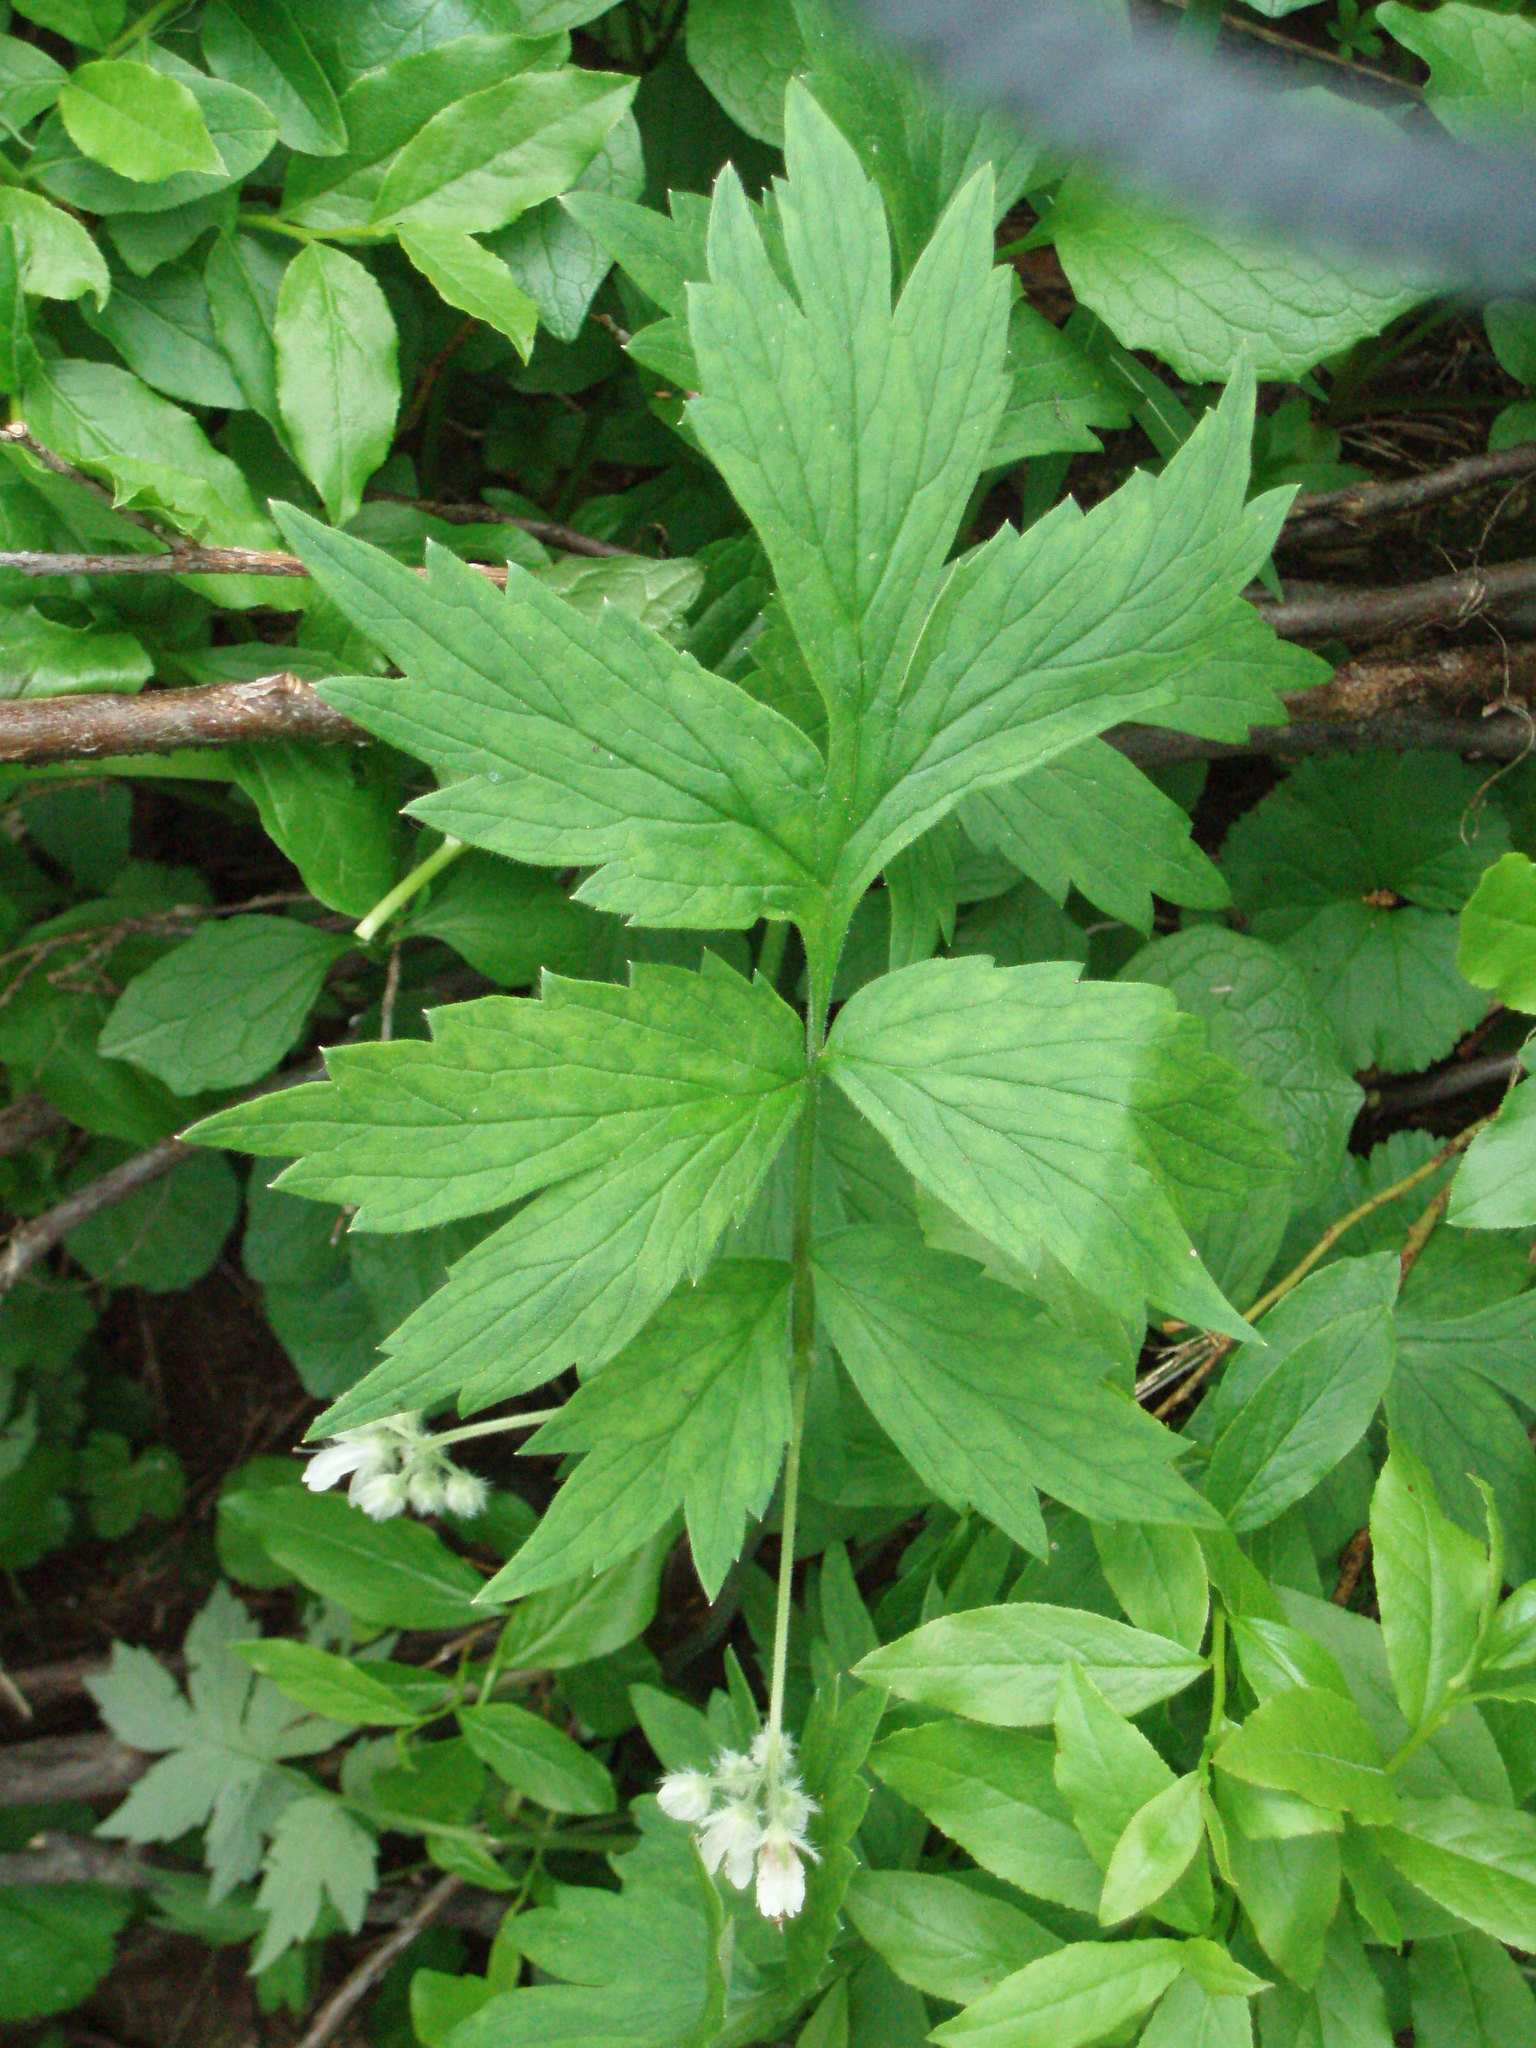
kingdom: Plantae
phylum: Tracheophyta
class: Magnoliopsida
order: Boraginales
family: Hydrophyllaceae
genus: Hydrophyllum
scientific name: Hydrophyllum fendleri
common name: Fendler's waterleaf
